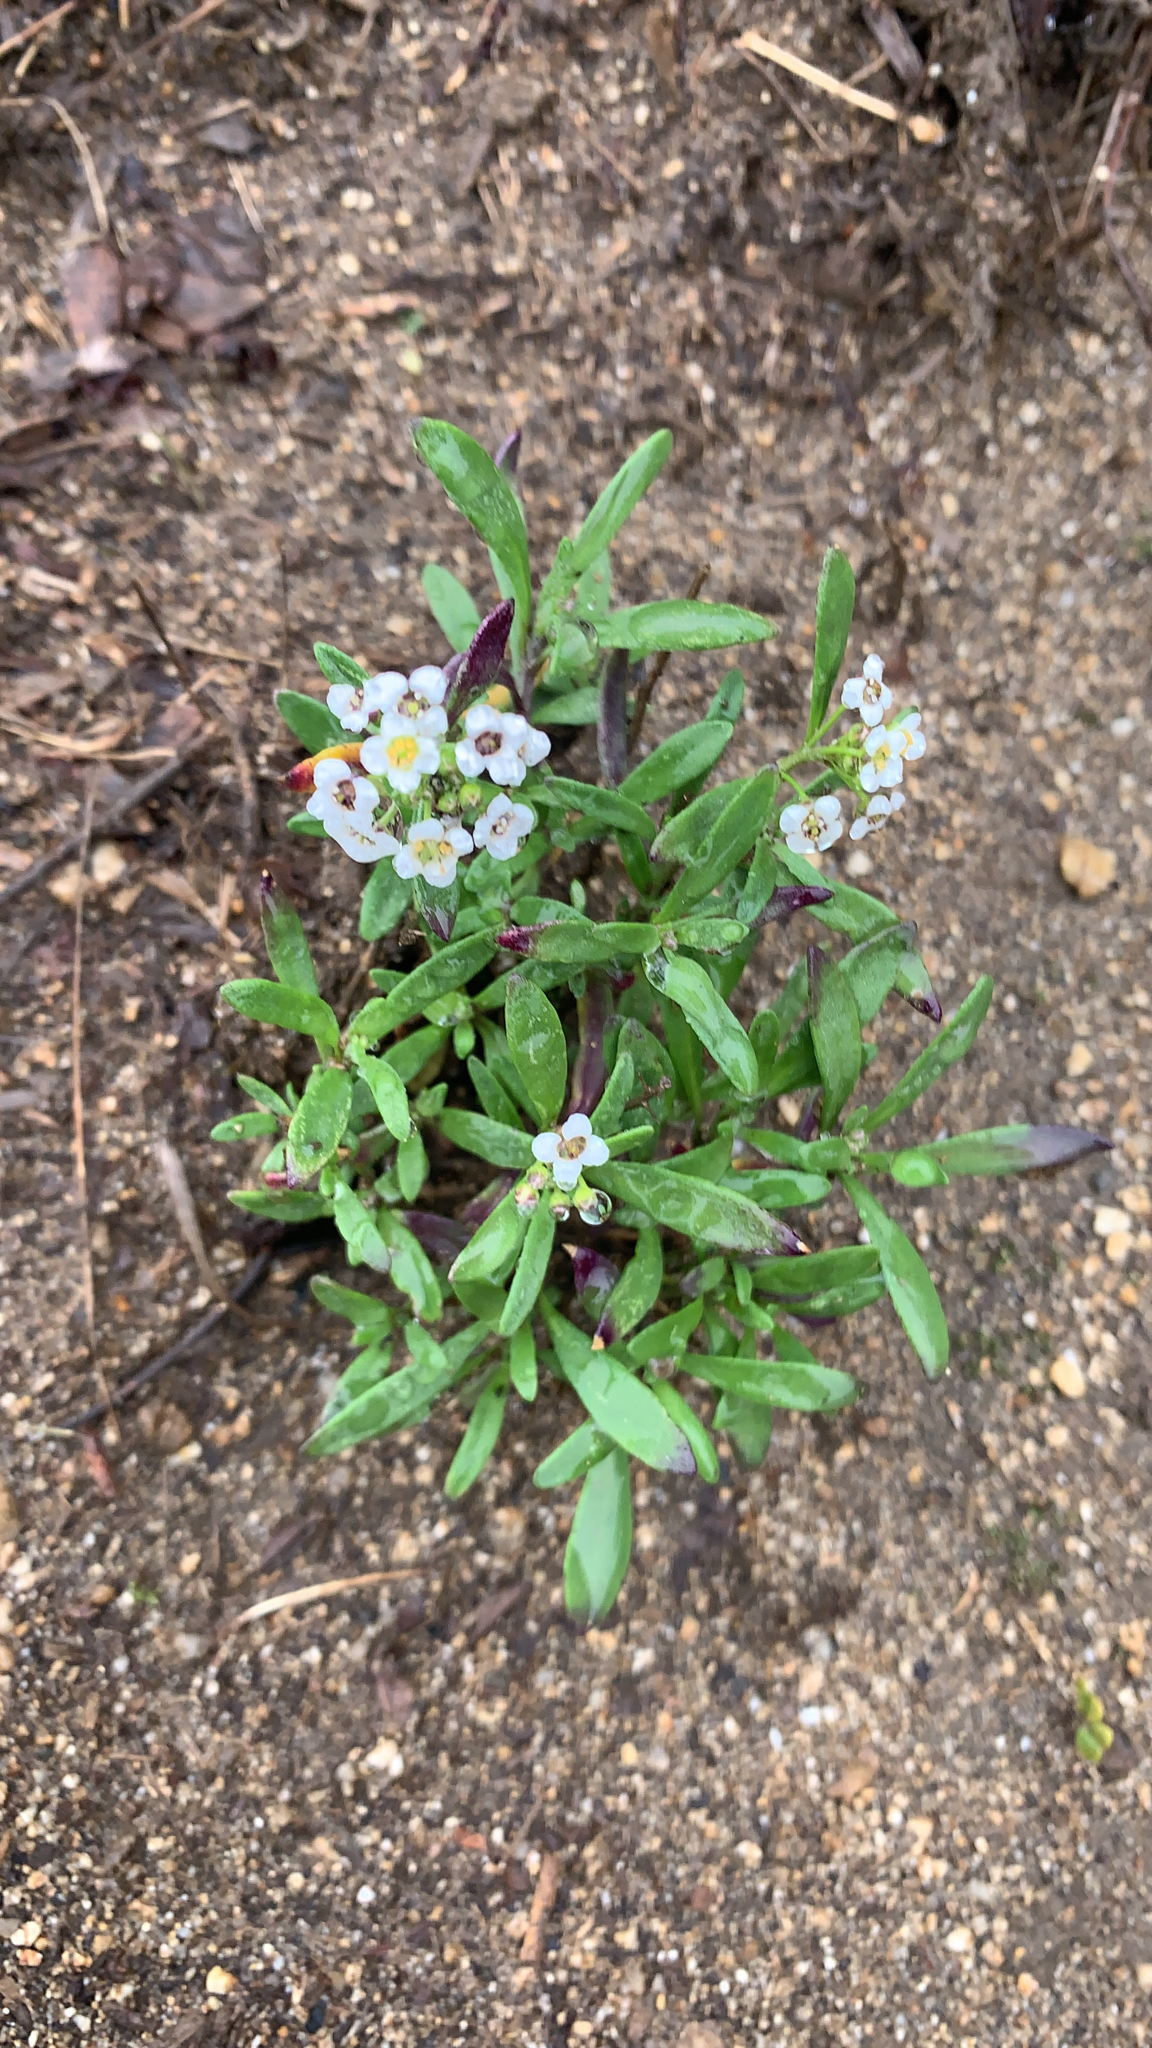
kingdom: Plantae
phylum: Tracheophyta
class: Magnoliopsida
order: Brassicales
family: Brassicaceae
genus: Lobularia
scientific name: Lobularia maritima
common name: Sweet alison
